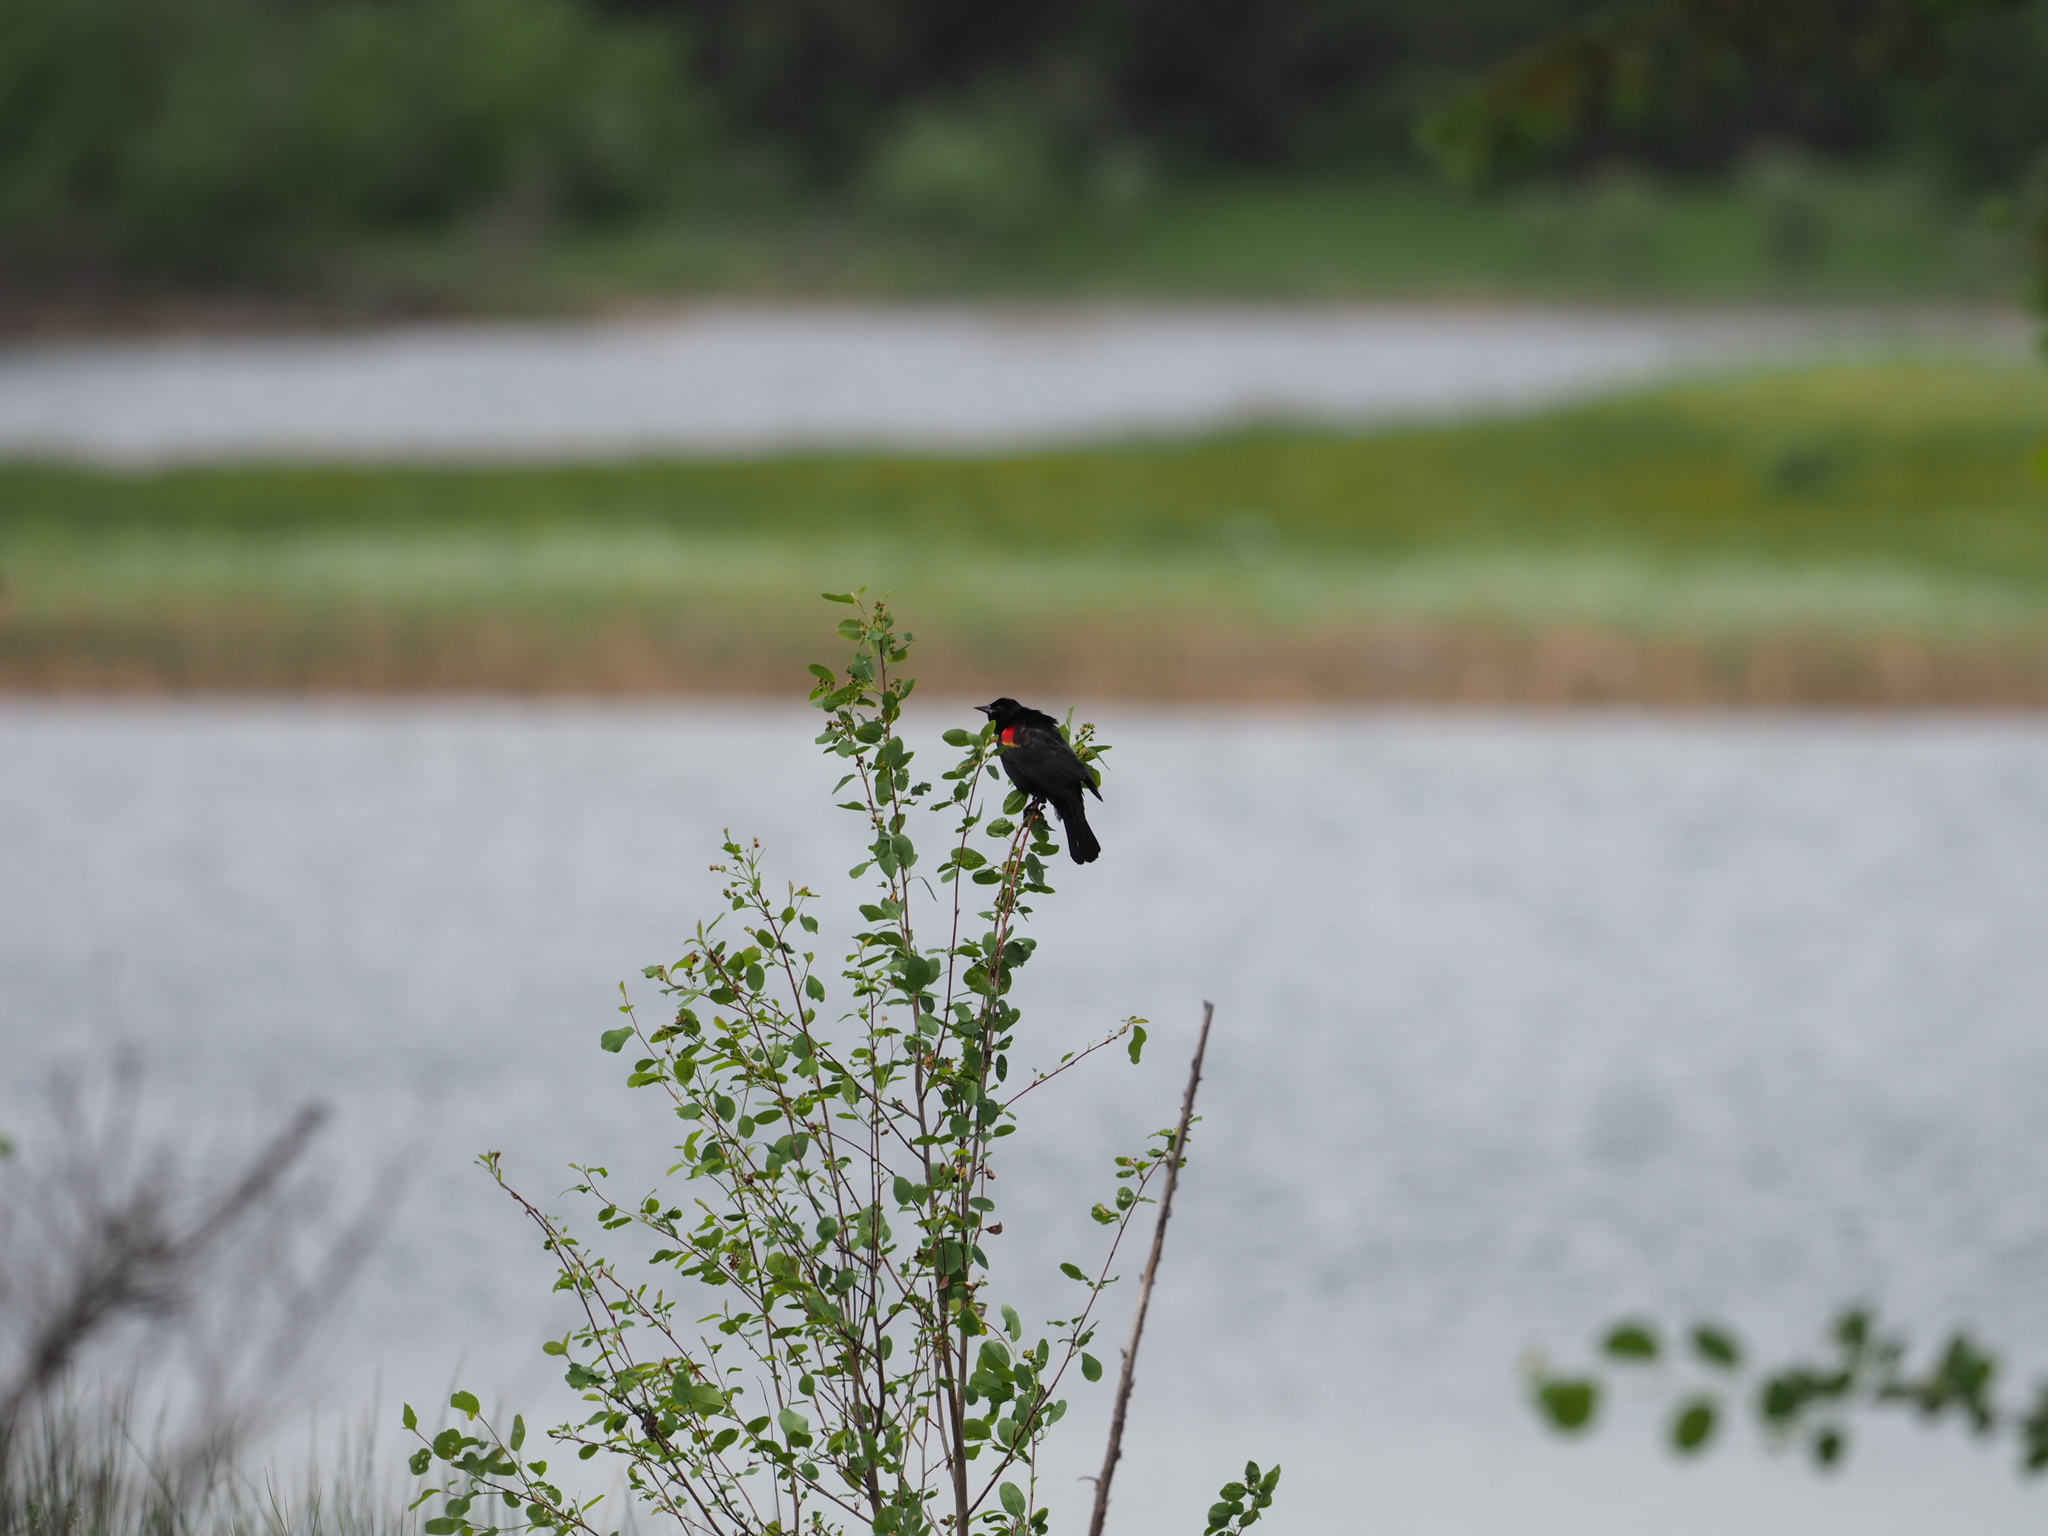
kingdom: Animalia
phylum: Chordata
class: Aves
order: Passeriformes
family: Icteridae
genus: Agelaius
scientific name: Agelaius phoeniceus
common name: Red-winged blackbird
